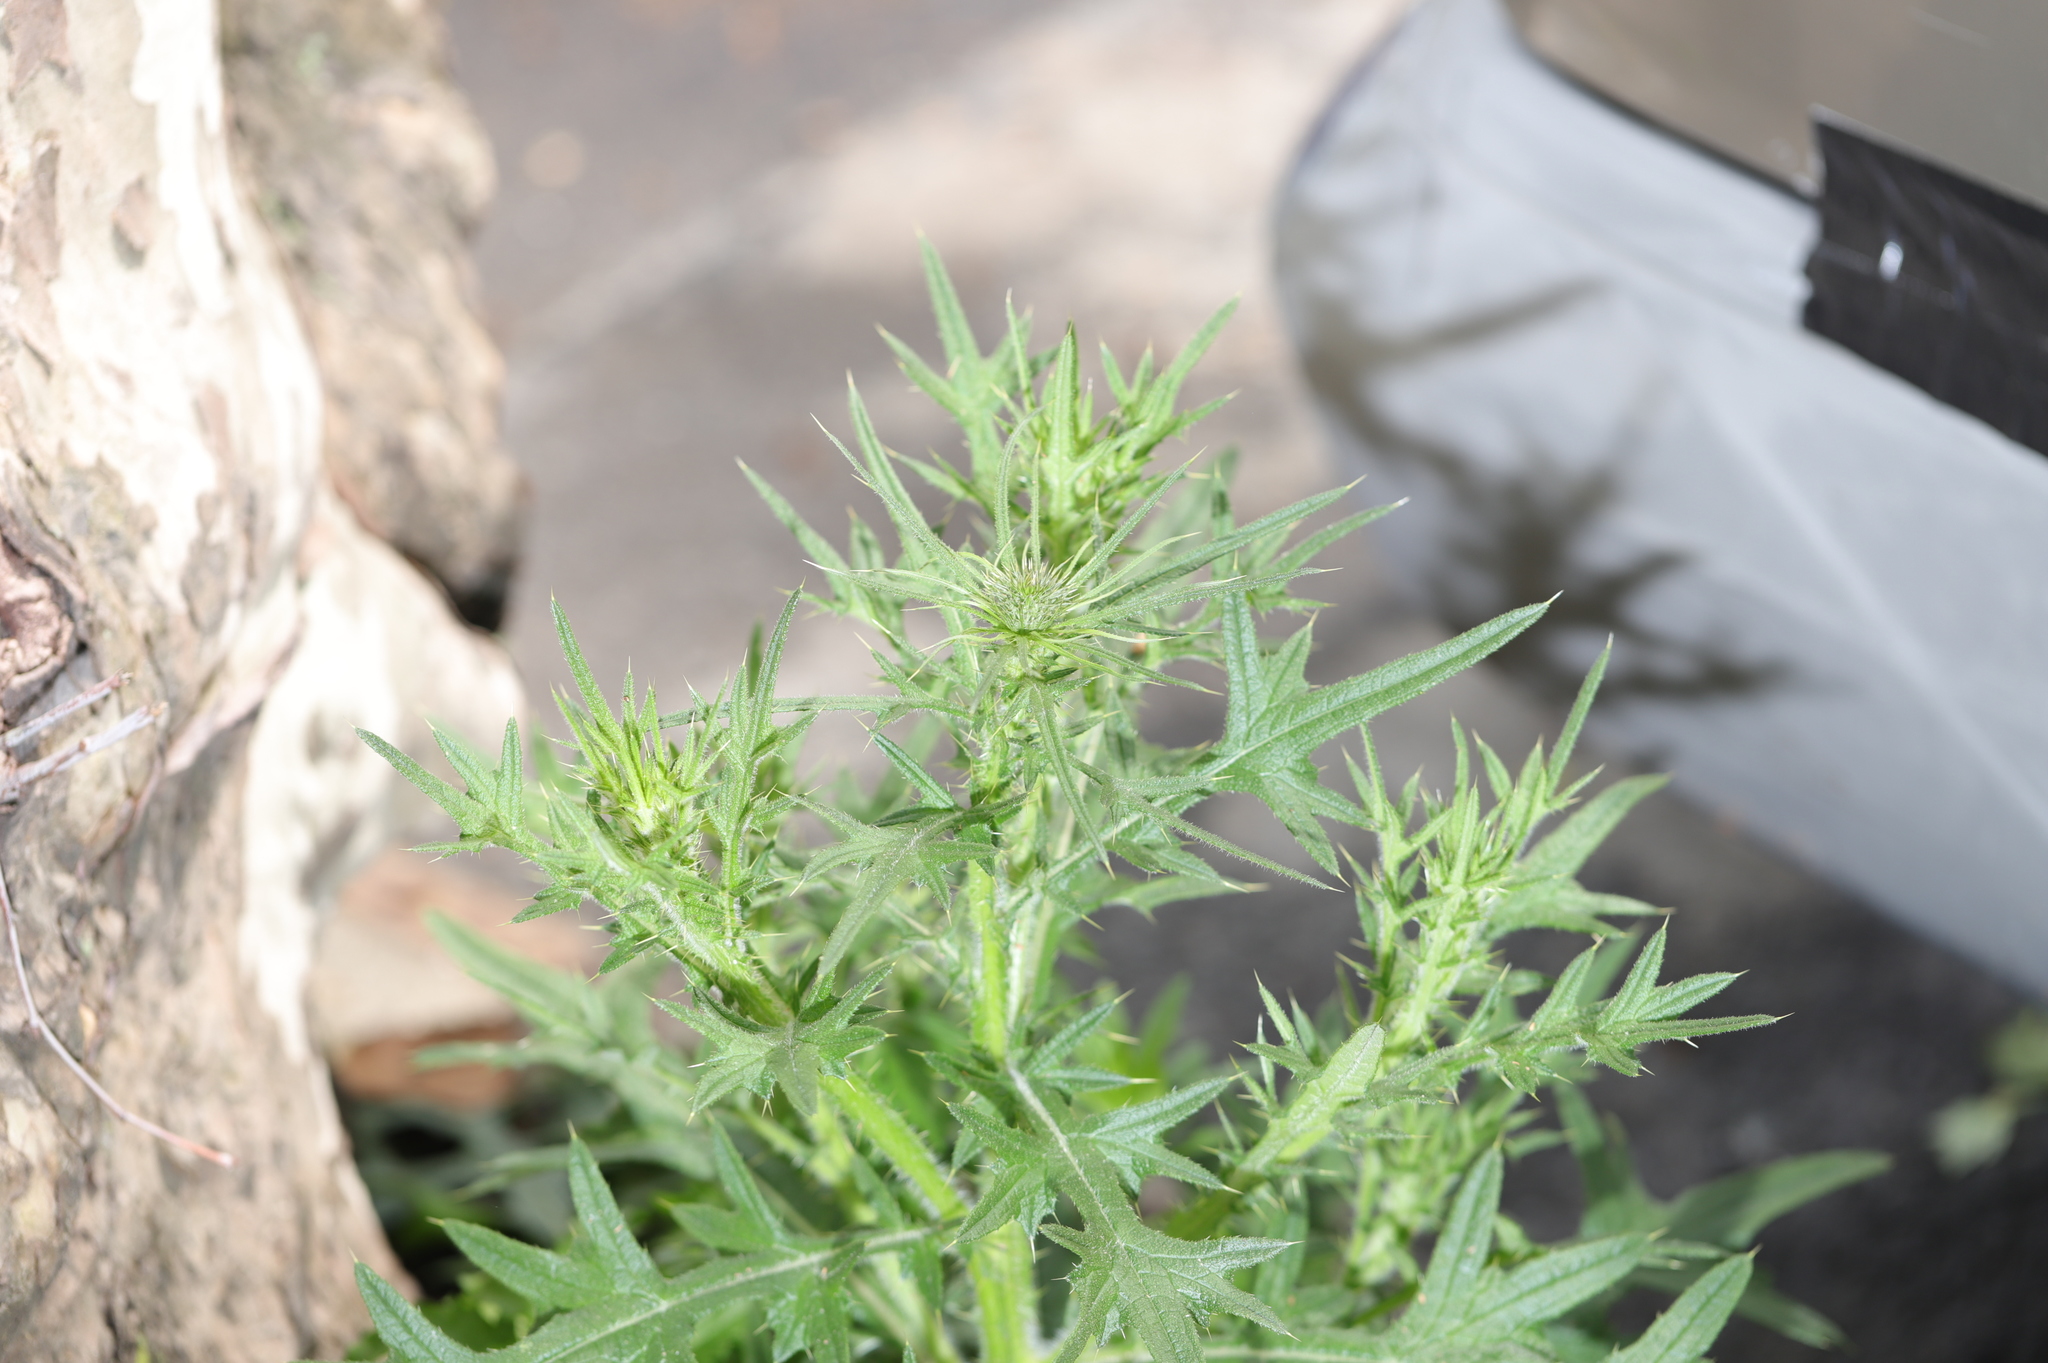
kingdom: Plantae
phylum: Tracheophyta
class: Magnoliopsida
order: Asterales
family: Asteraceae
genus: Cirsium
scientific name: Cirsium vulgare
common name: Bull thistle
